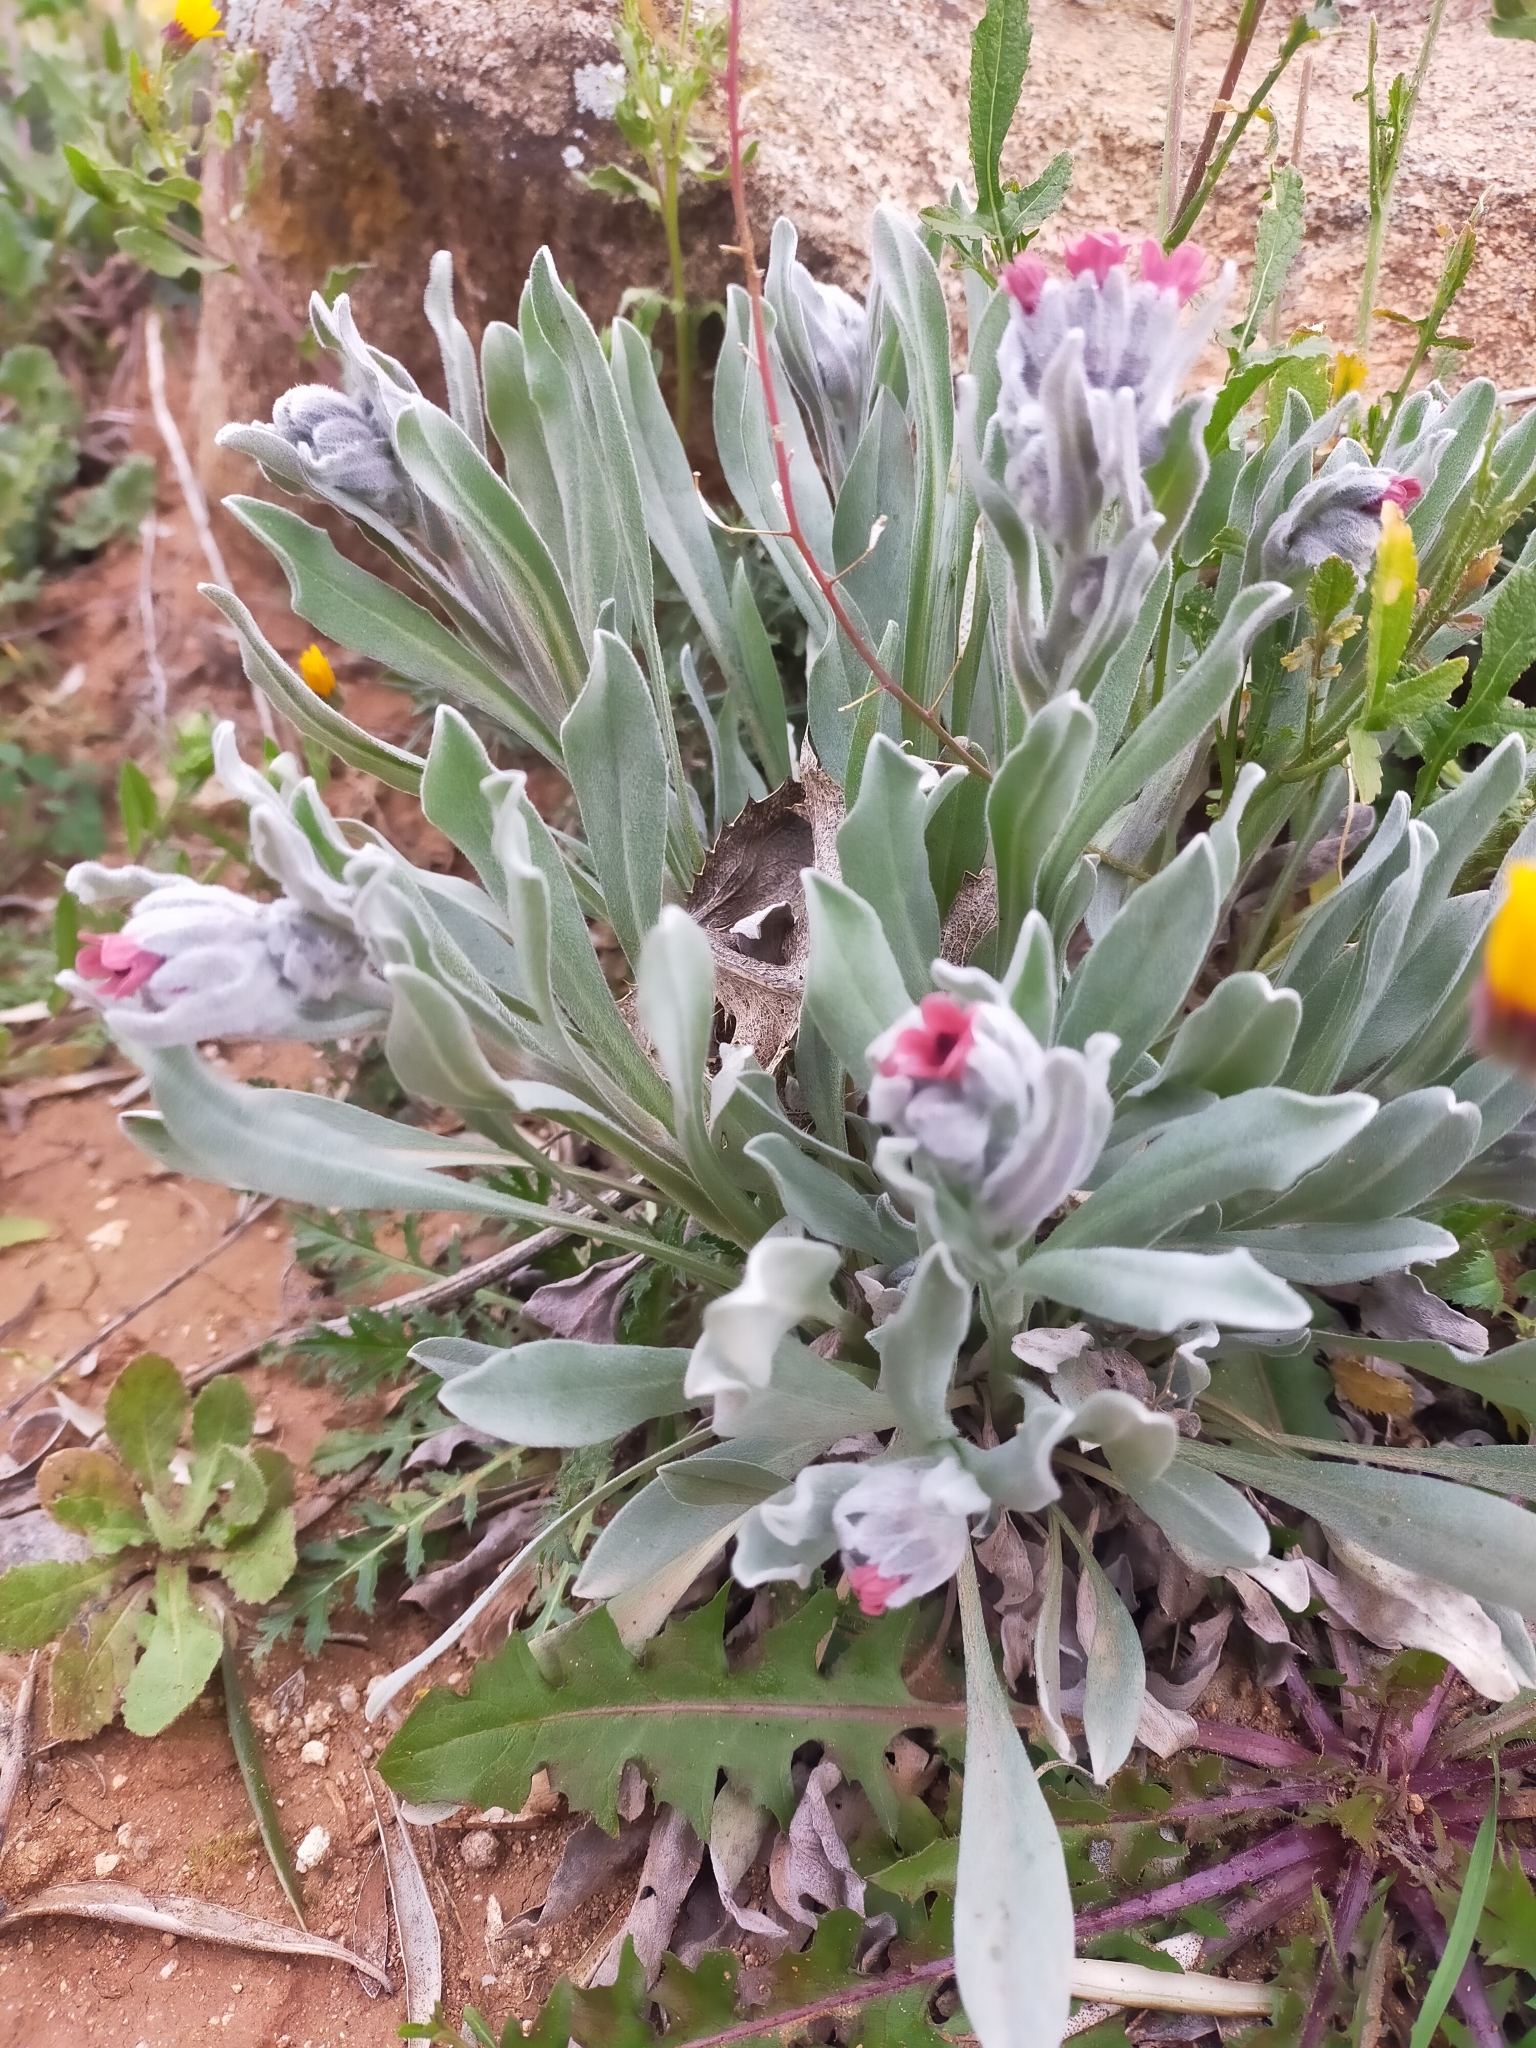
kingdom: Plantae
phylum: Tracheophyta
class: Magnoliopsida
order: Boraginales
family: Boraginaceae
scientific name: Boraginaceae
